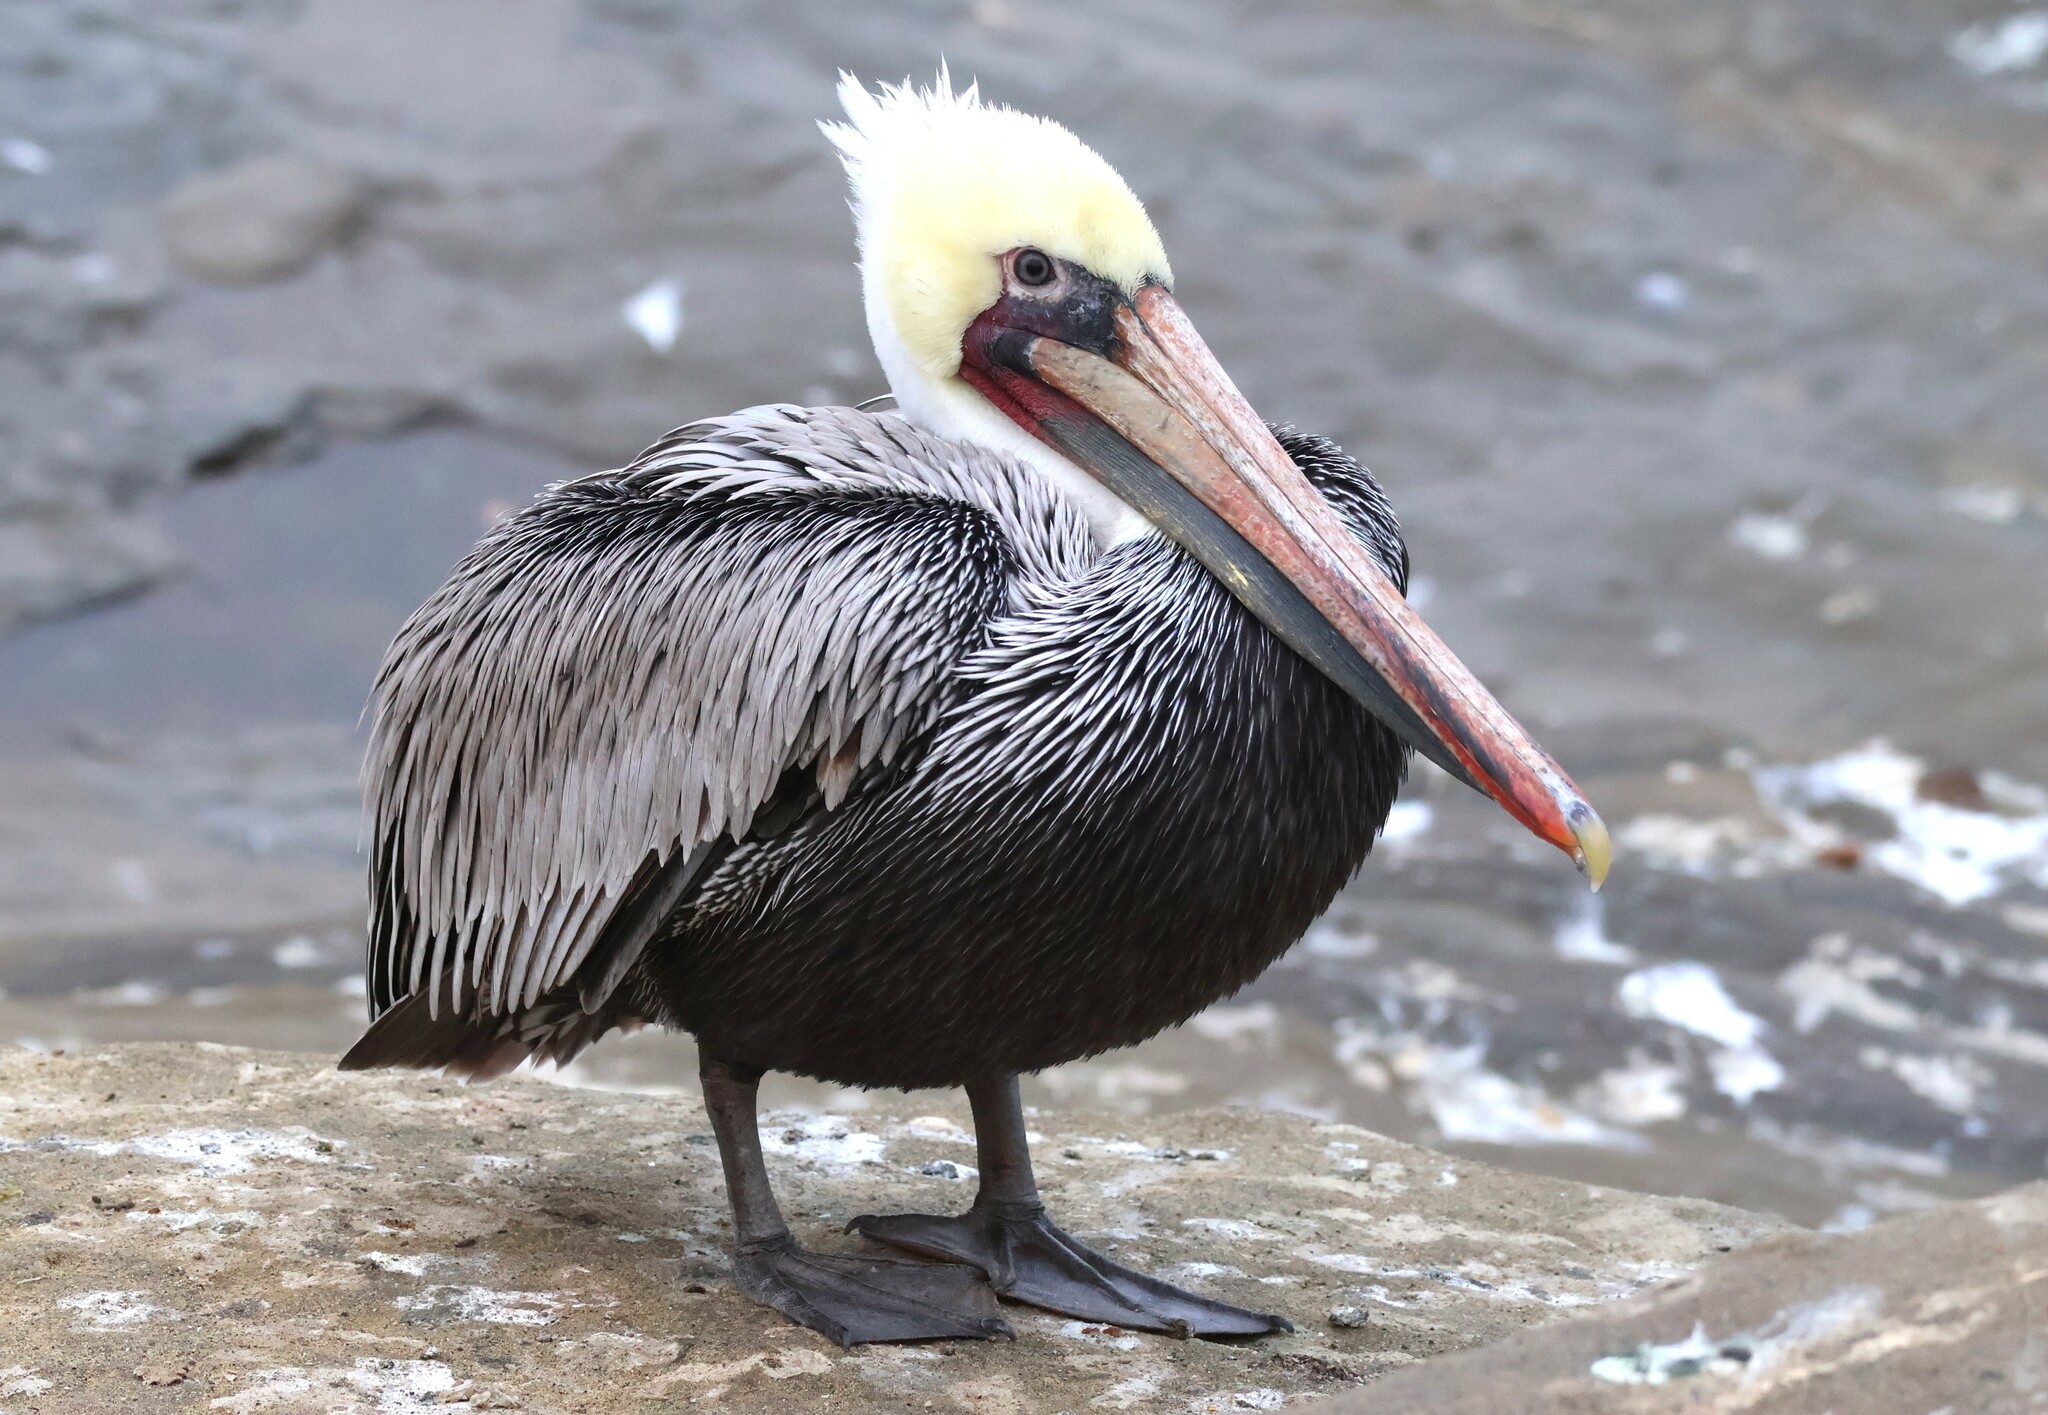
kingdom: Animalia
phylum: Chordata
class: Aves
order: Pelecaniformes
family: Pelecanidae
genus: Pelecanus
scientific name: Pelecanus occidentalis
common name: Brown pelican
